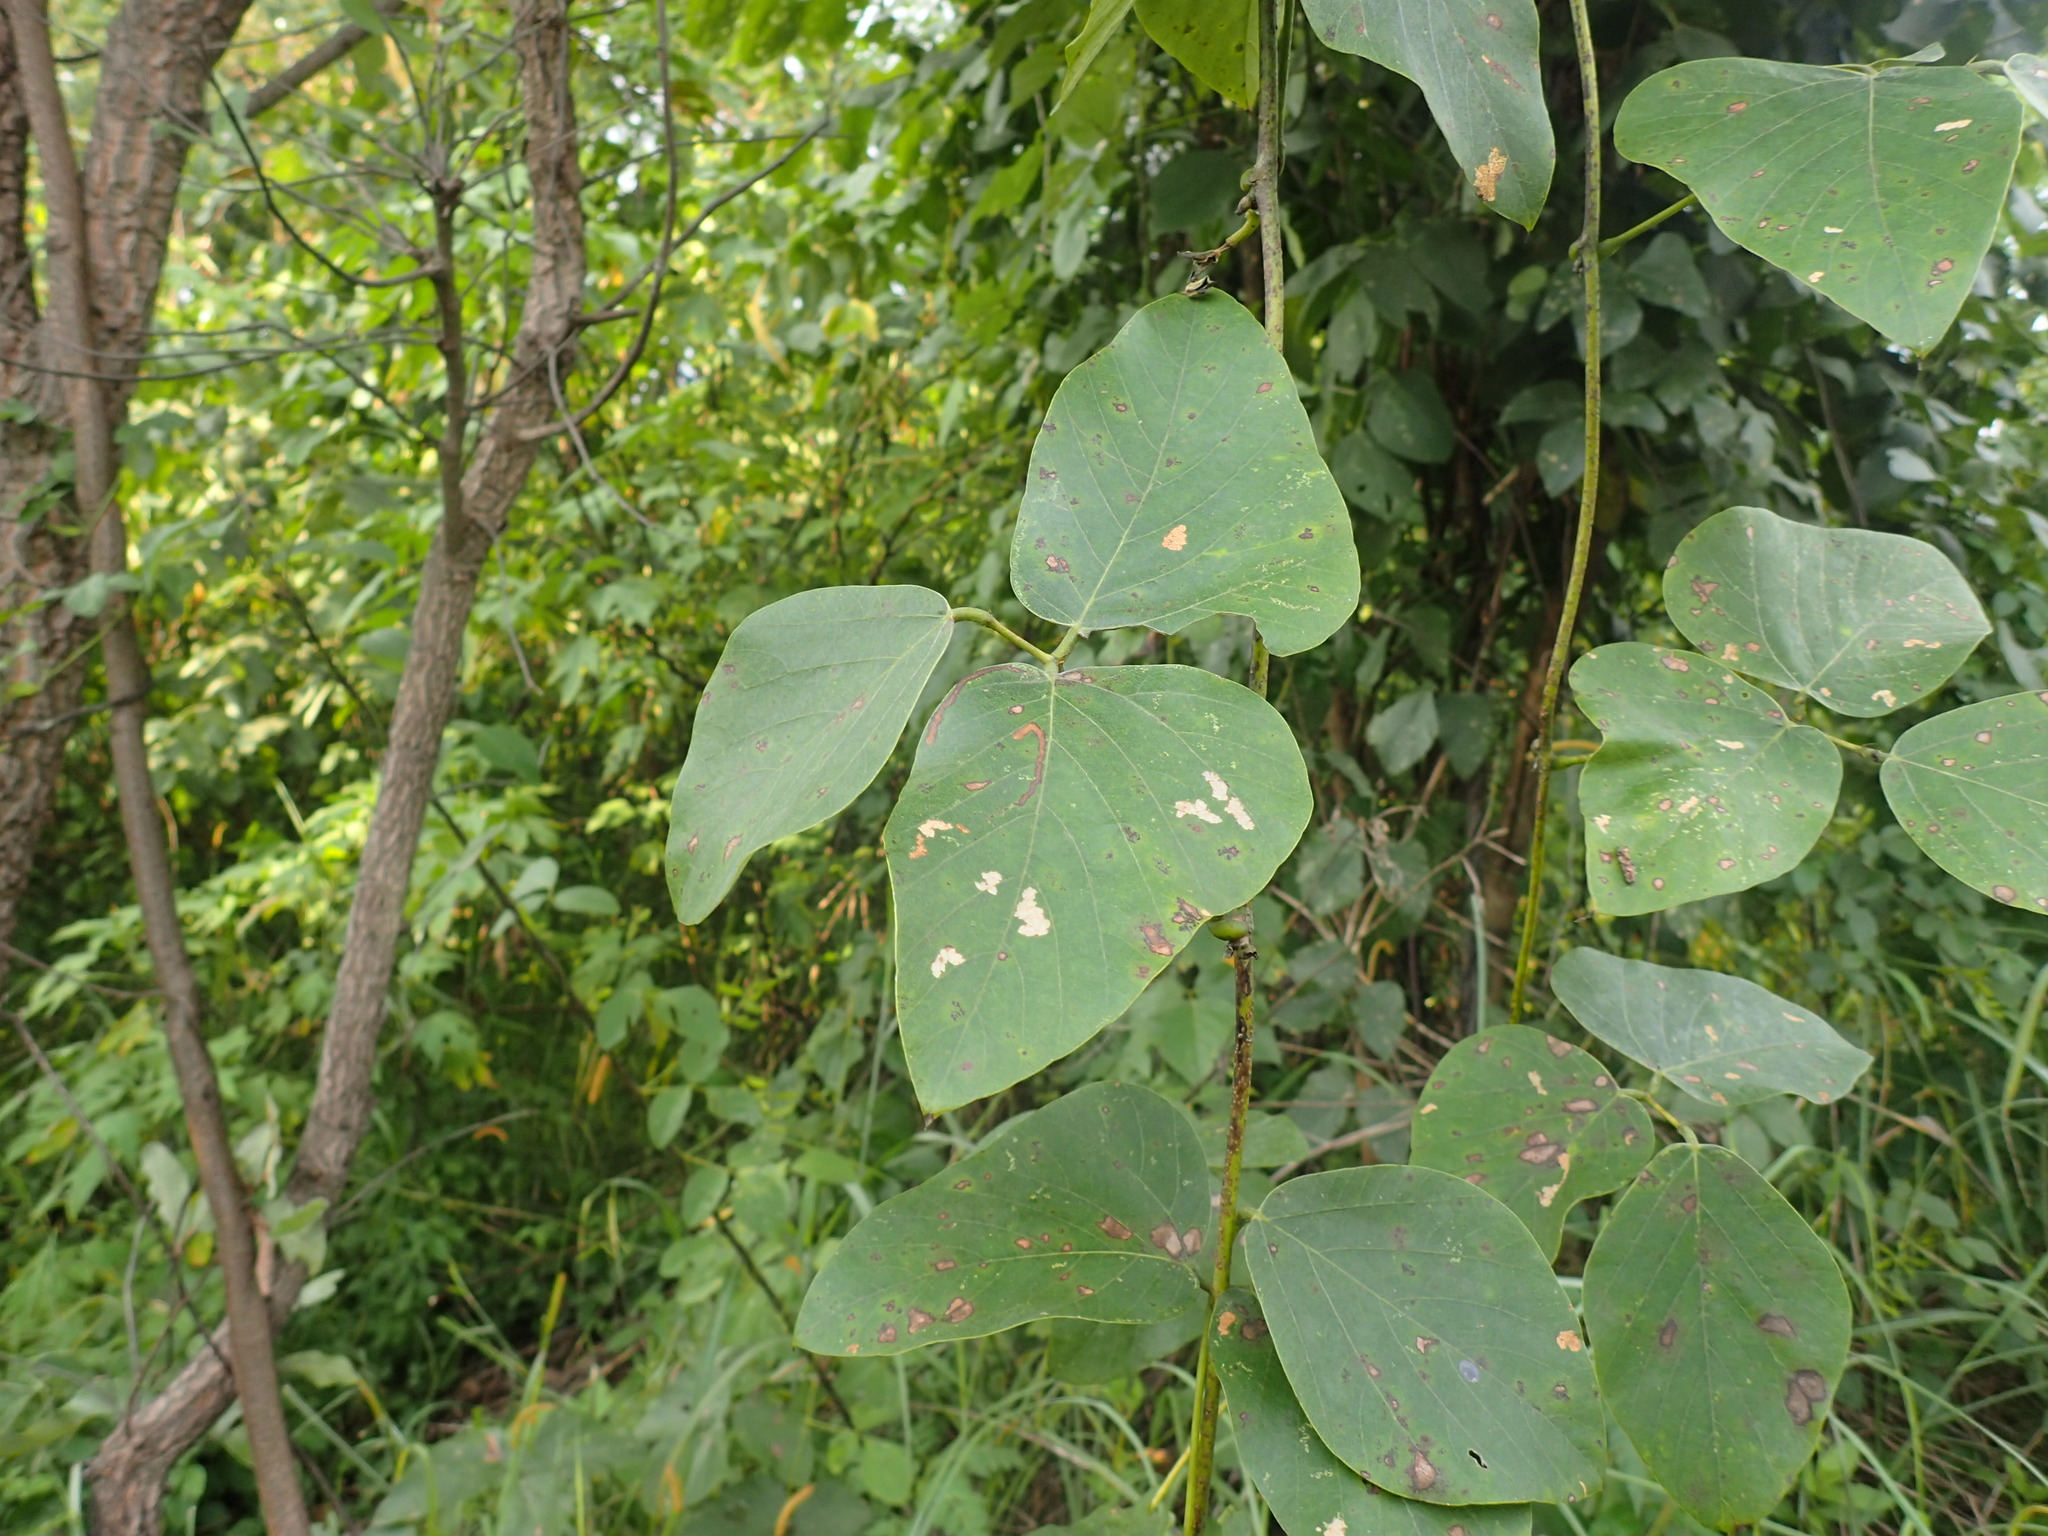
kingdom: Plantae
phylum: Tracheophyta
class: Magnoliopsida
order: Fabales
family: Fabaceae
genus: Mucuna
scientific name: Mucuna poggei
